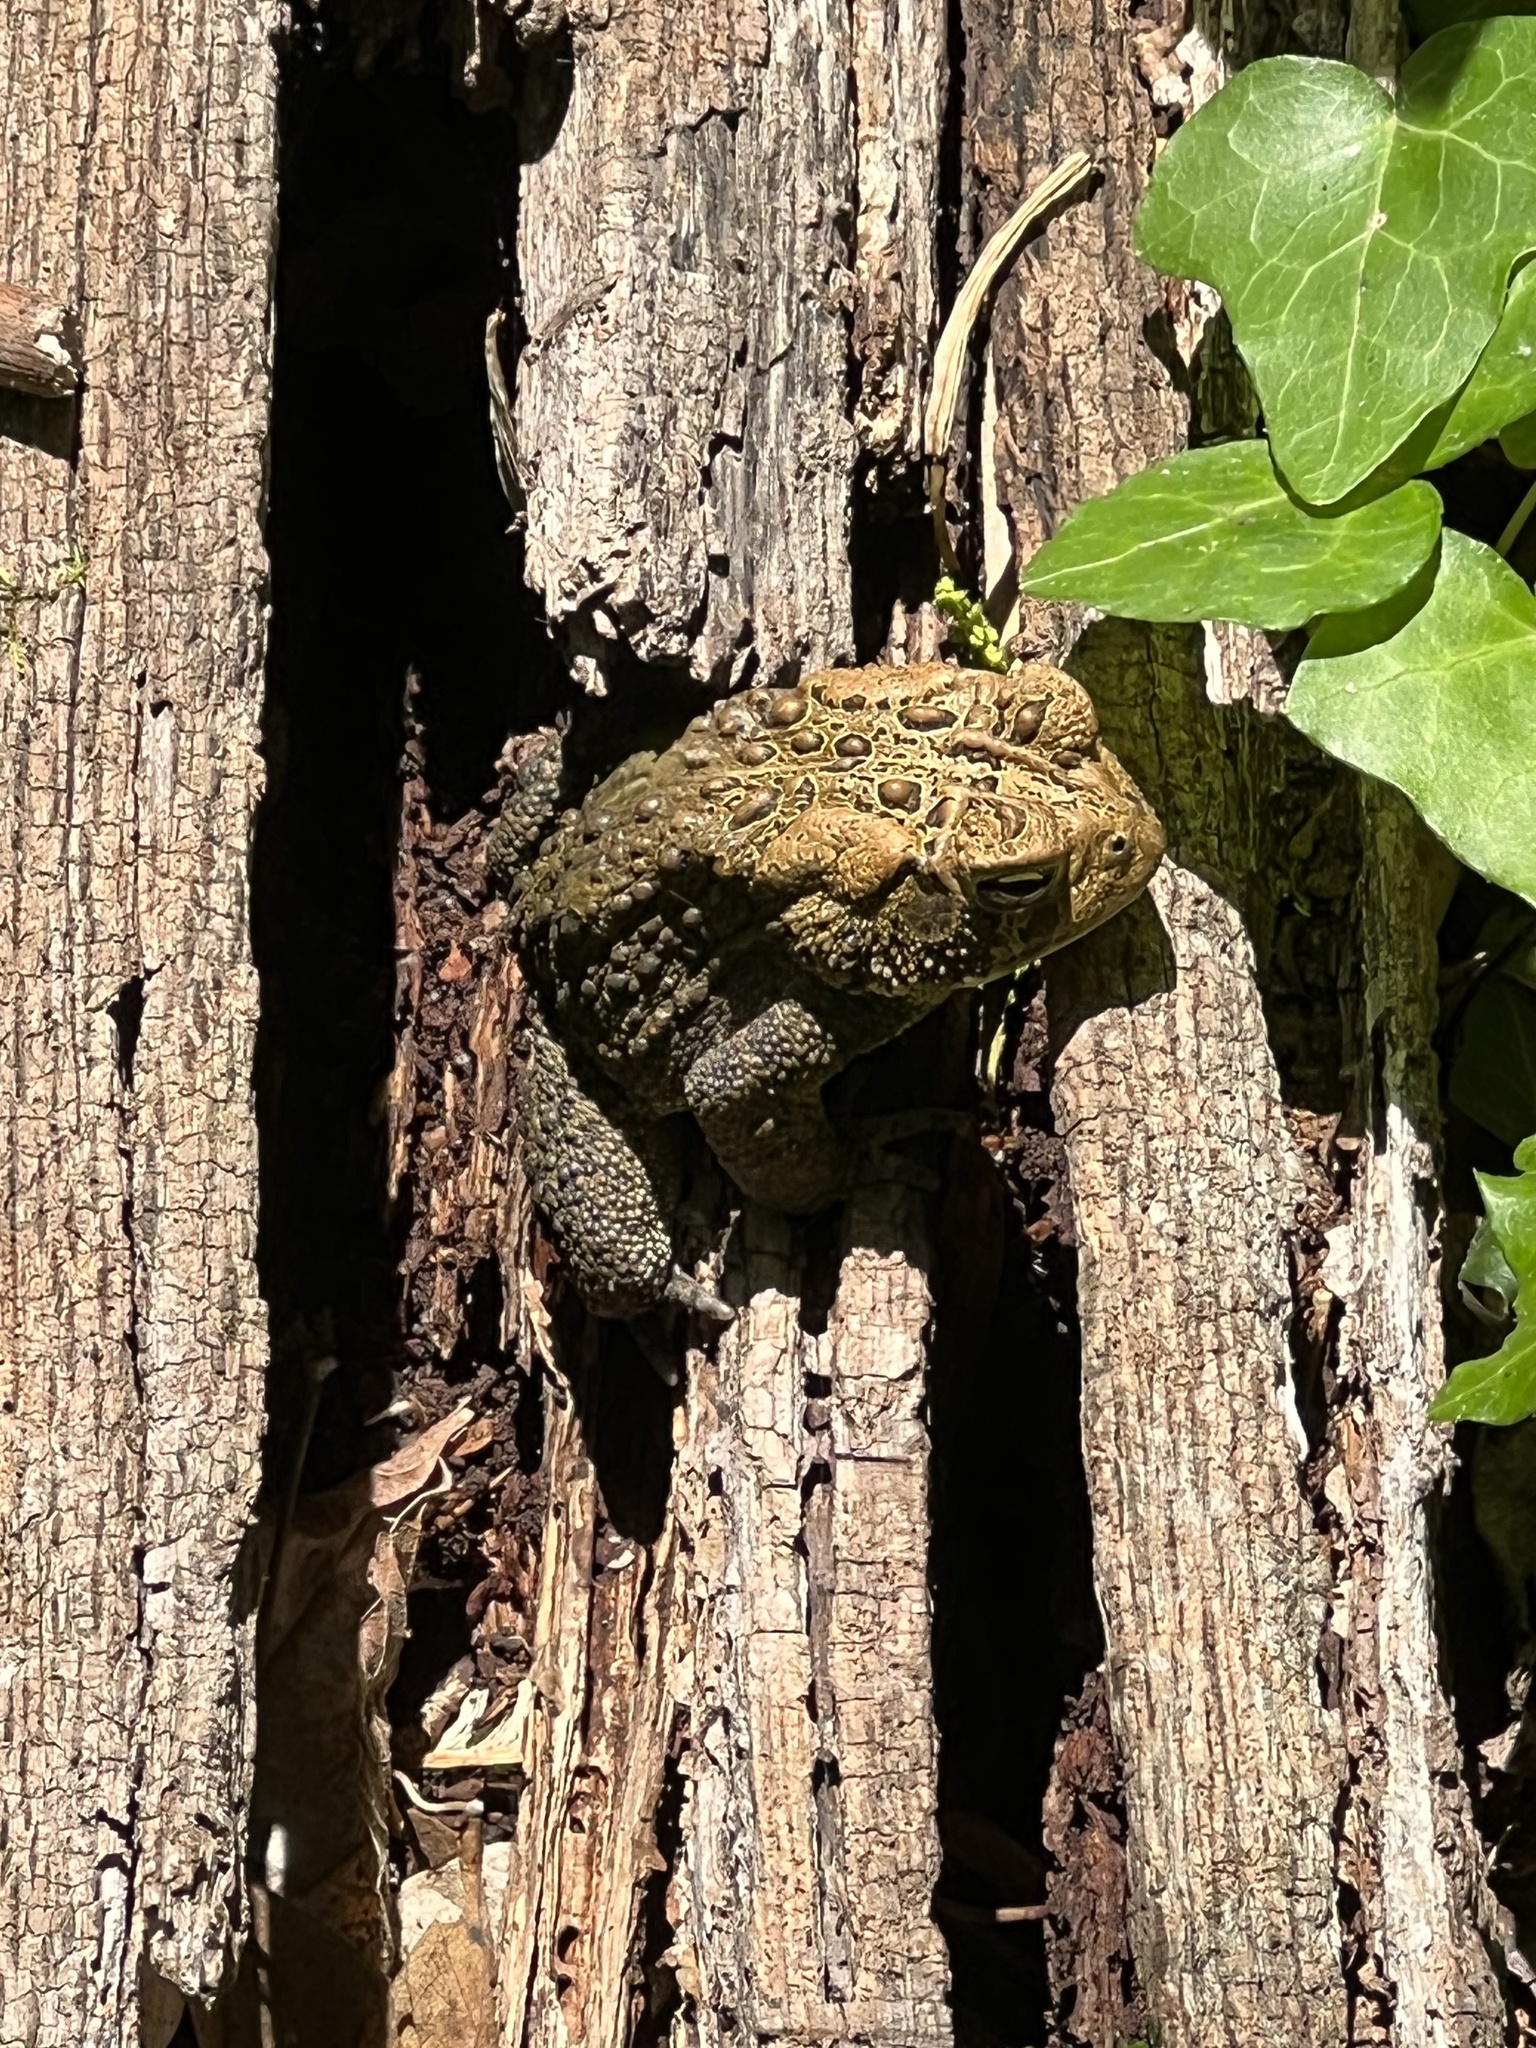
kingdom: Animalia
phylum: Chordata
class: Amphibia
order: Anura
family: Bufonidae
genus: Anaxyrus
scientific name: Anaxyrus americanus
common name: American toad
